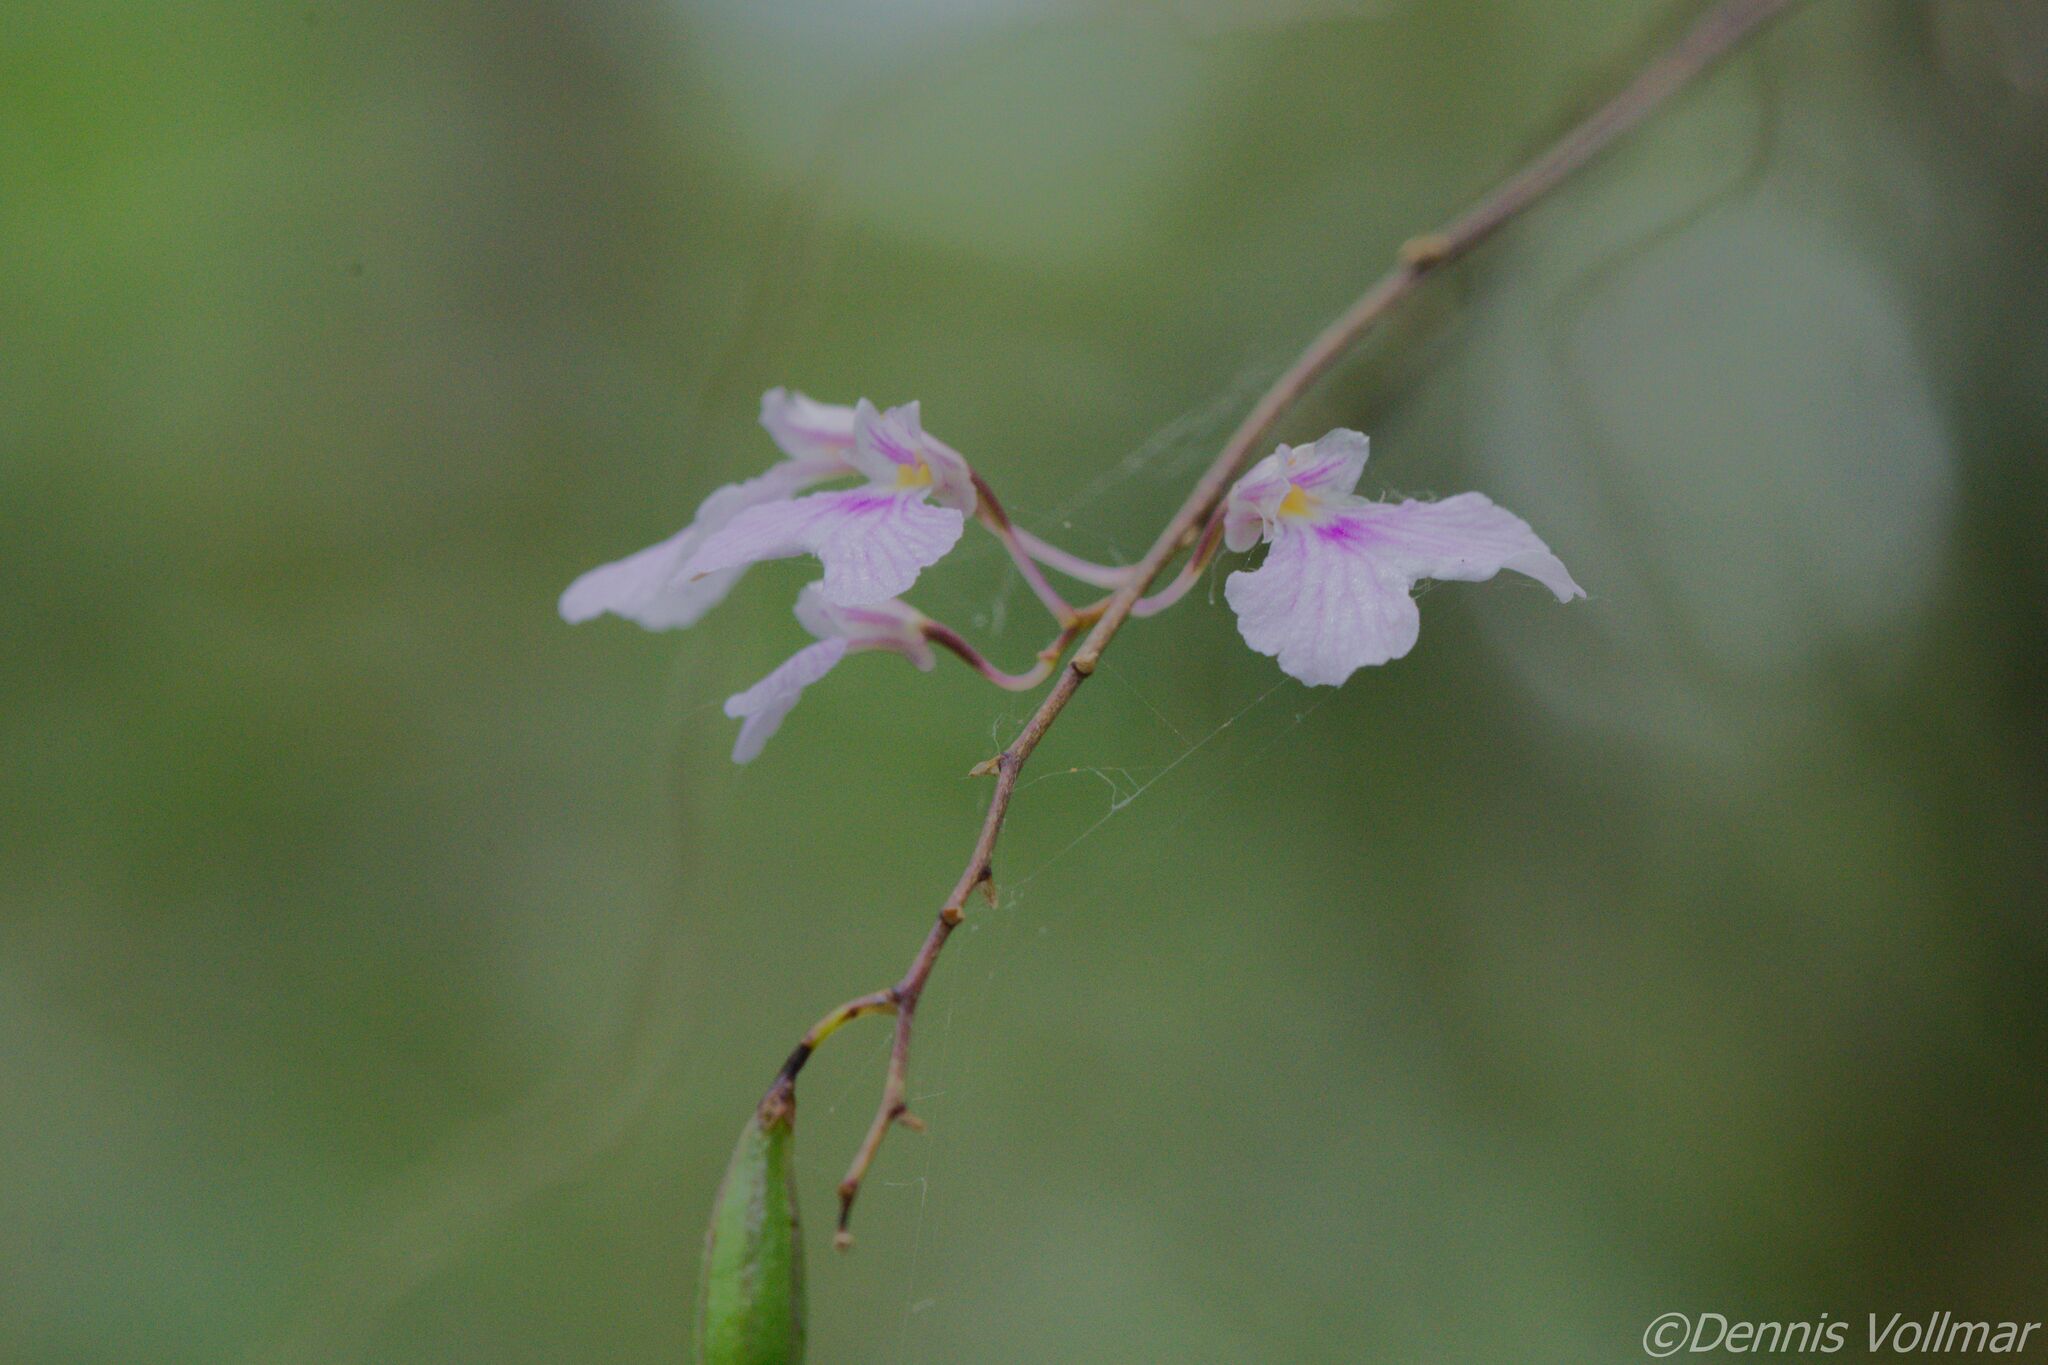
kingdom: Plantae
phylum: Tracheophyta
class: Liliopsida
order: Asparagales
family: Orchidaceae
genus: Ionopsis
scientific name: Ionopsis utricularioides
